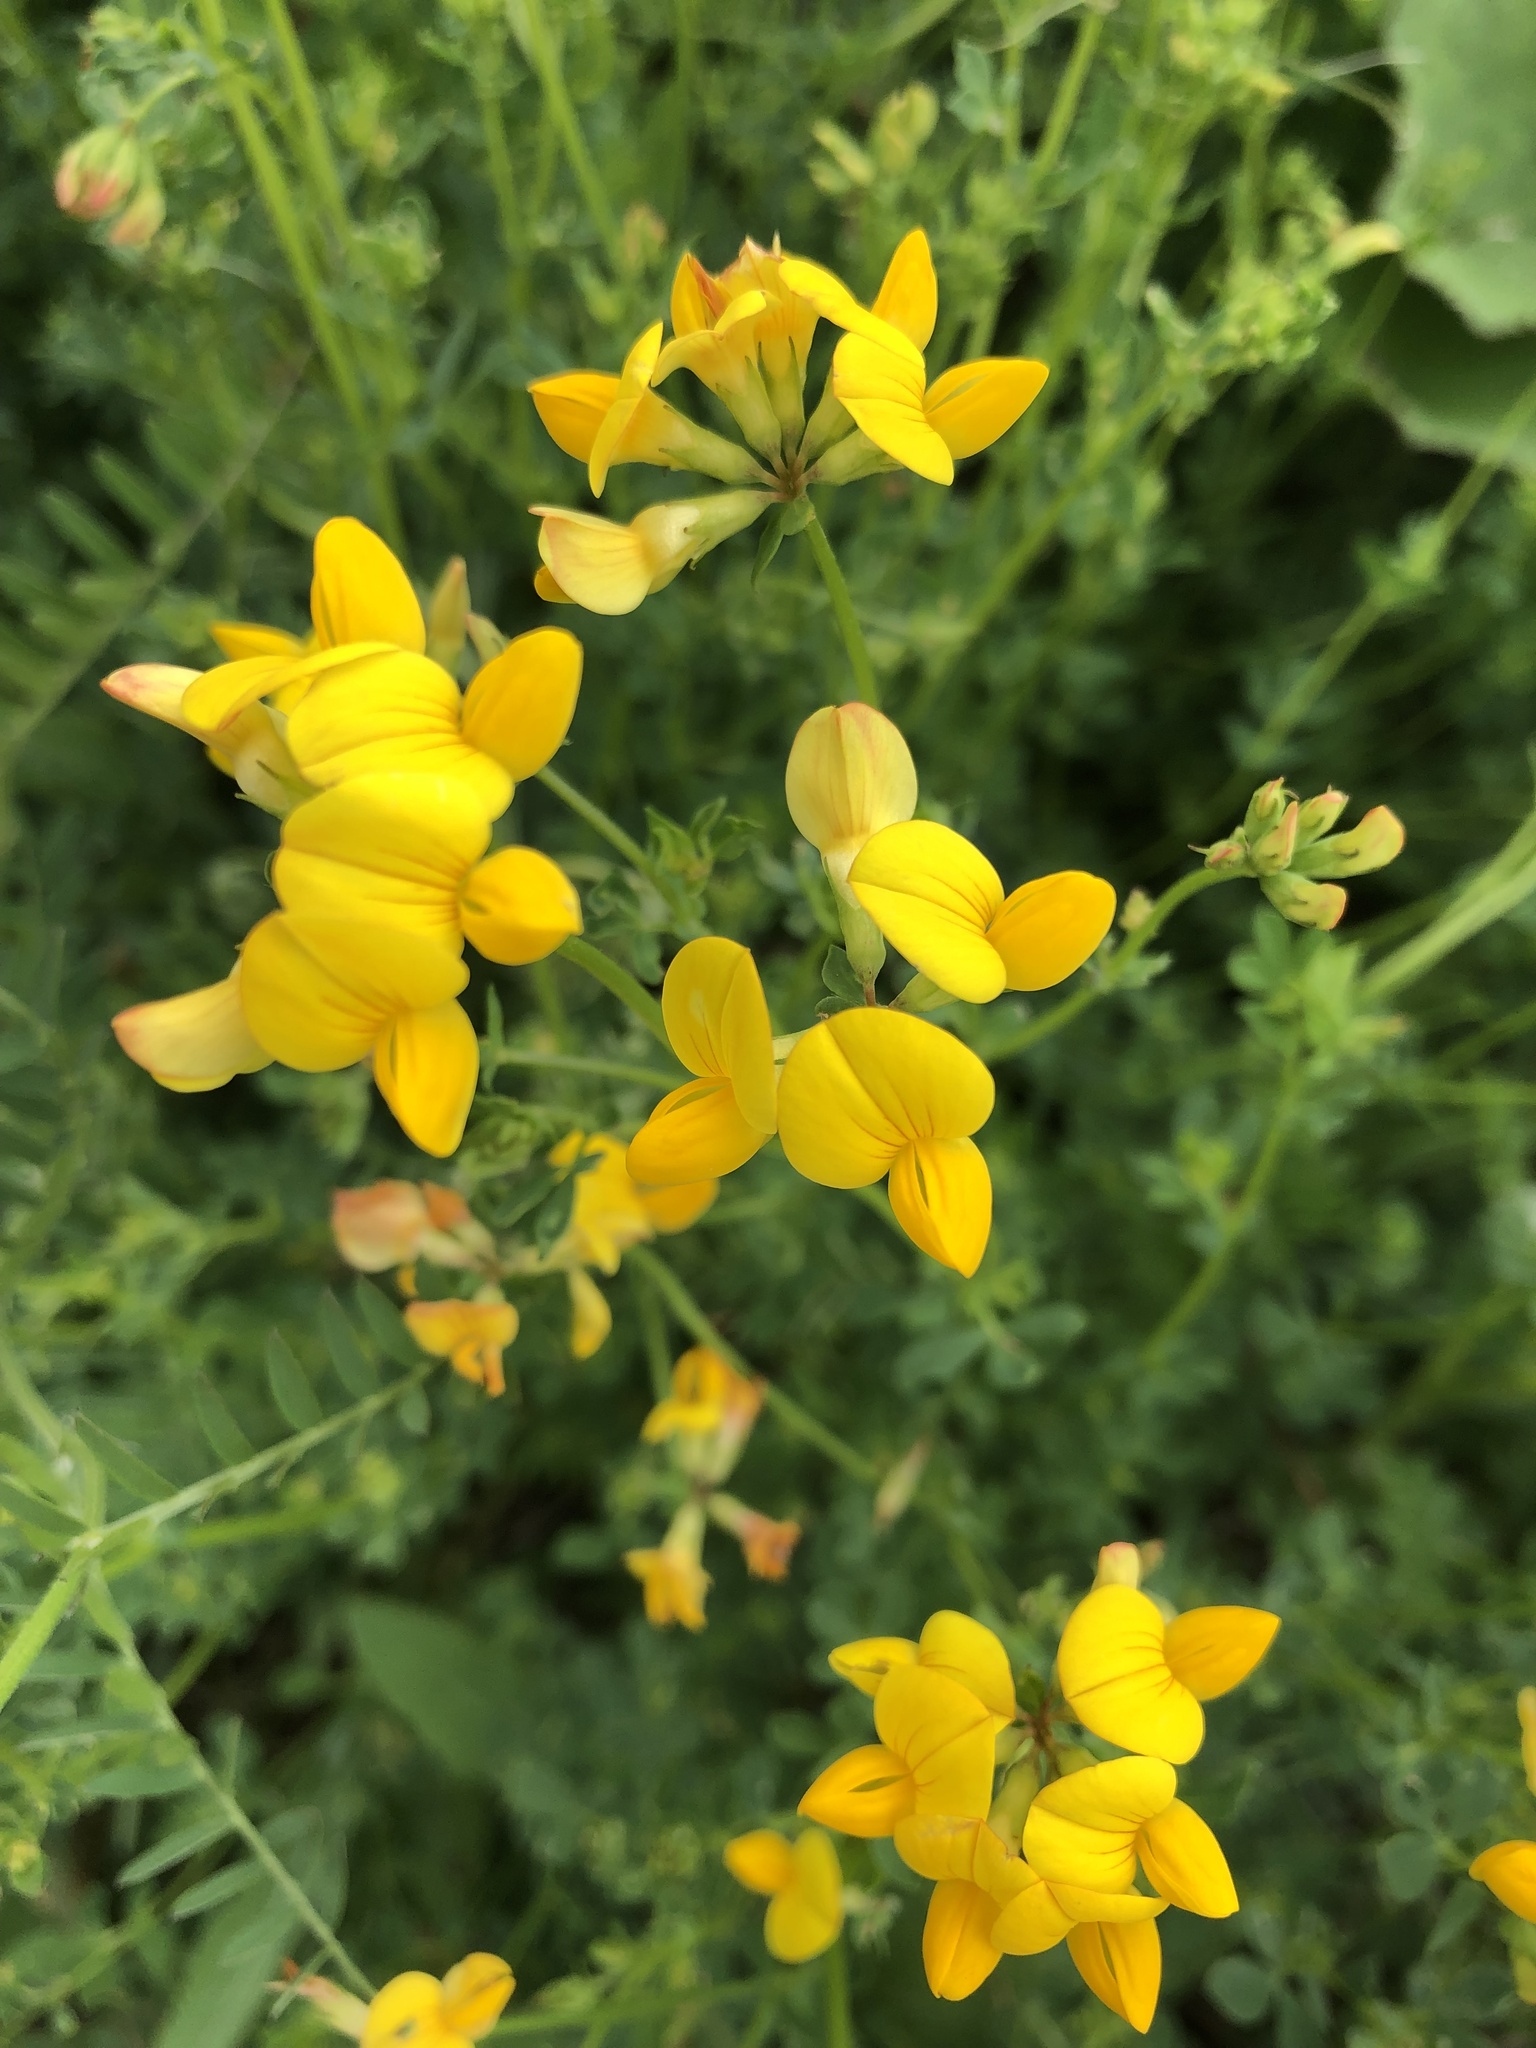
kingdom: Plantae
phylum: Tracheophyta
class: Magnoliopsida
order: Fabales
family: Fabaceae
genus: Lotus
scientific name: Lotus corniculatus
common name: Common bird's-foot-trefoil
